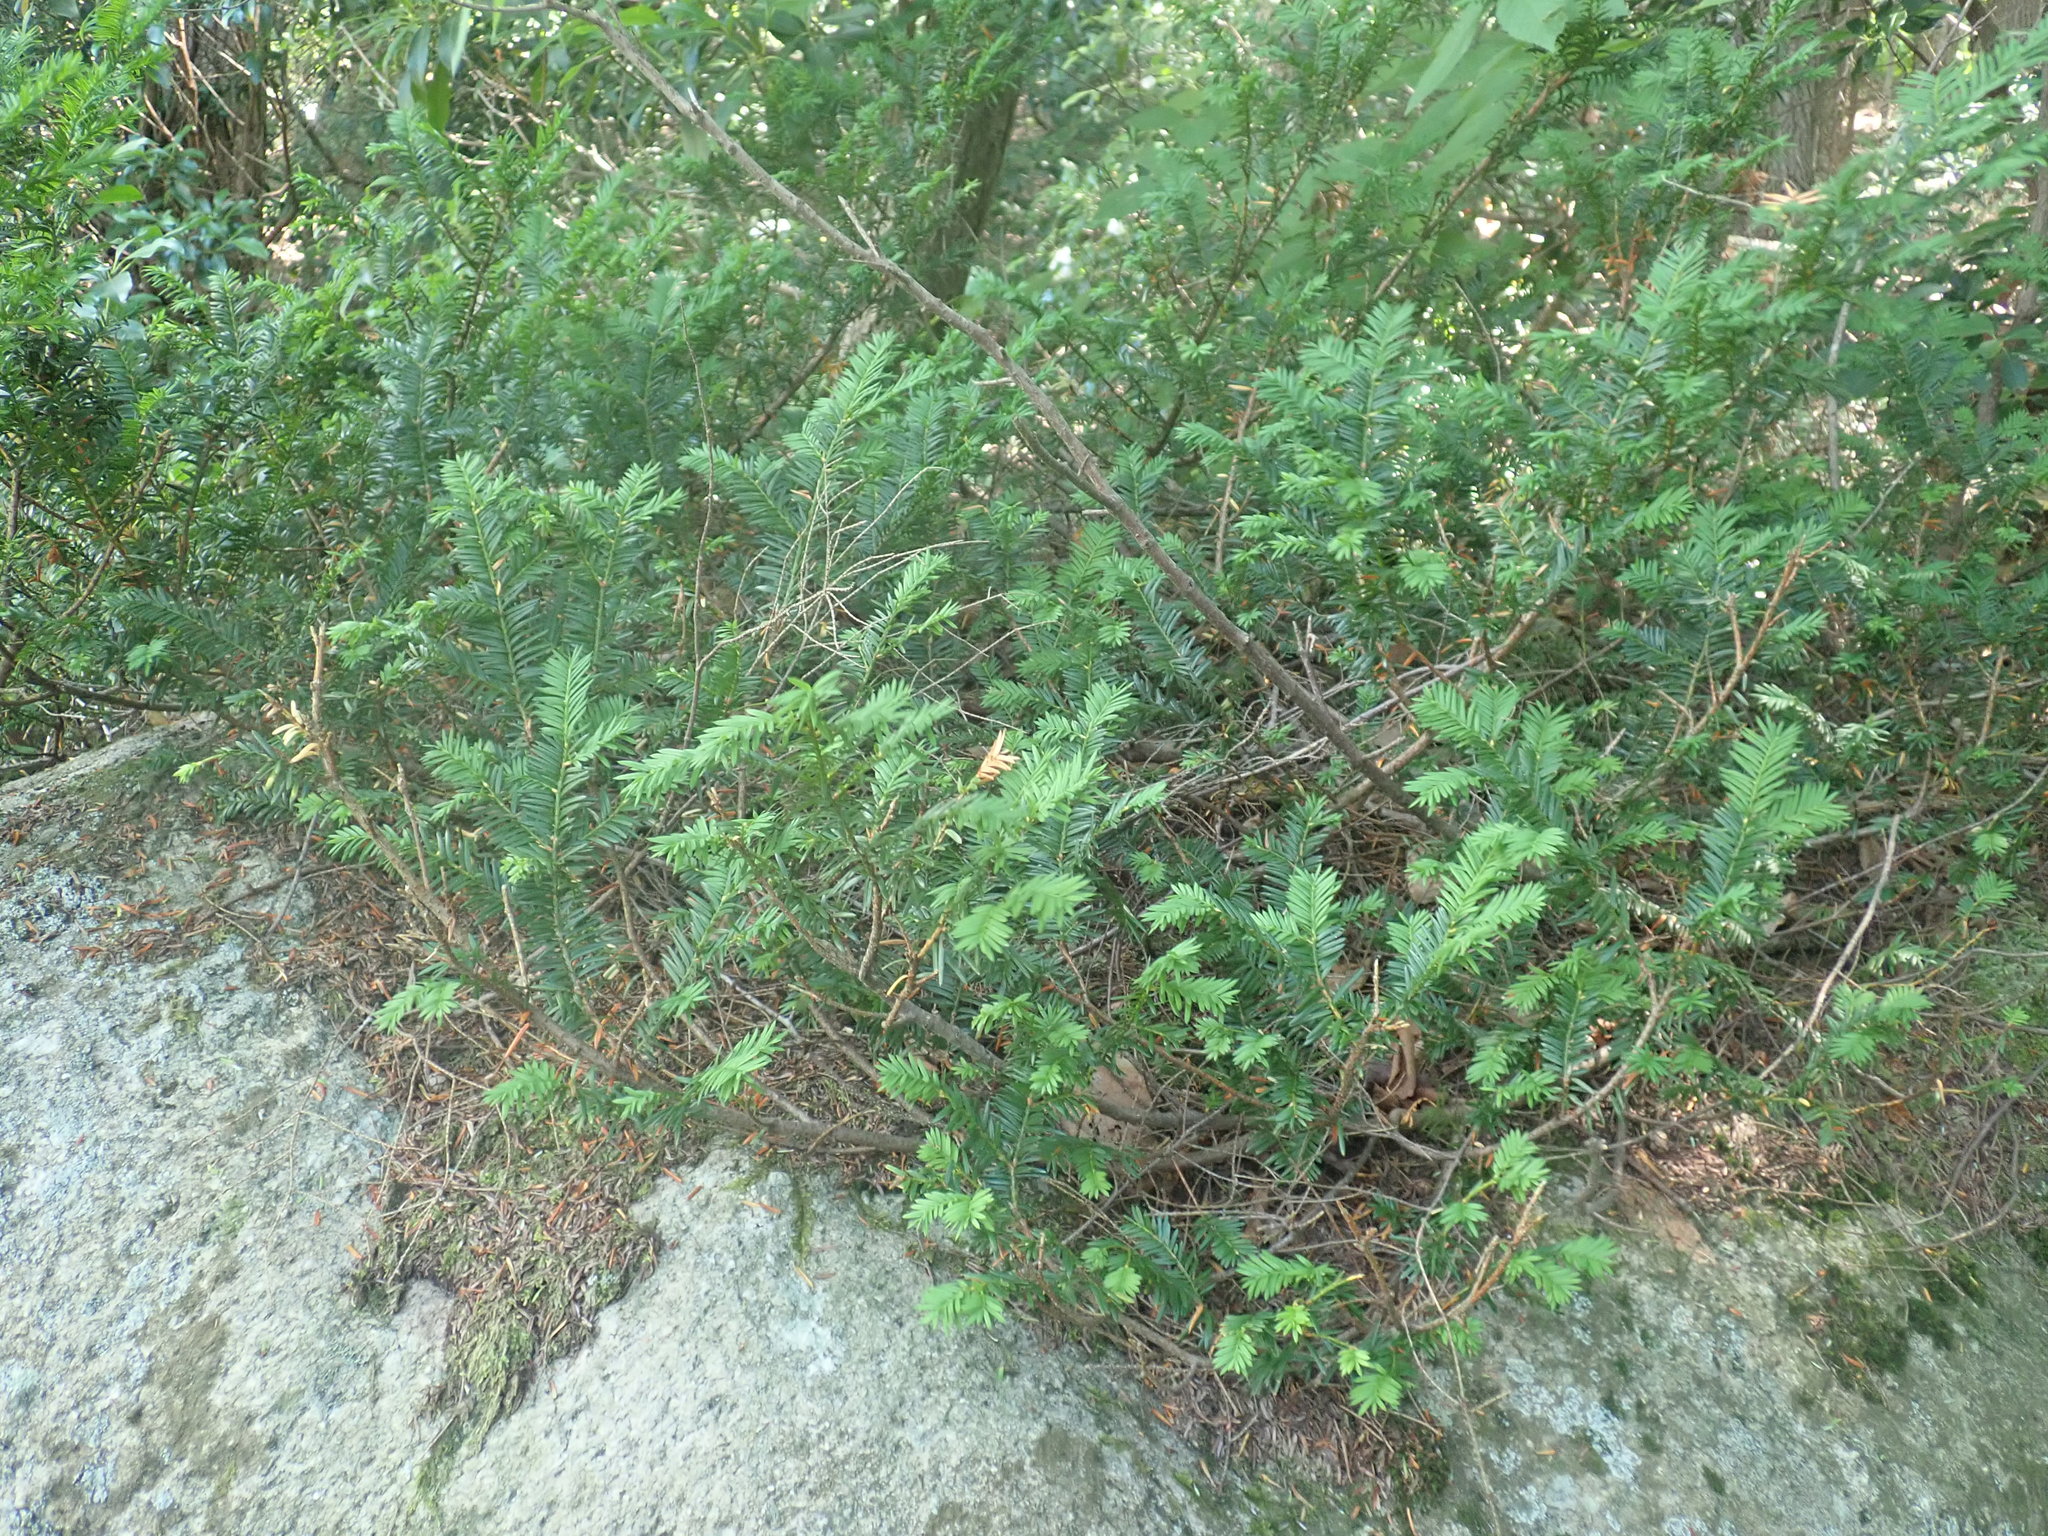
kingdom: Plantae
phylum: Tracheophyta
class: Pinopsida
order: Pinales
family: Taxaceae
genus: Taxus
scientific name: Taxus canadensis
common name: American yew
